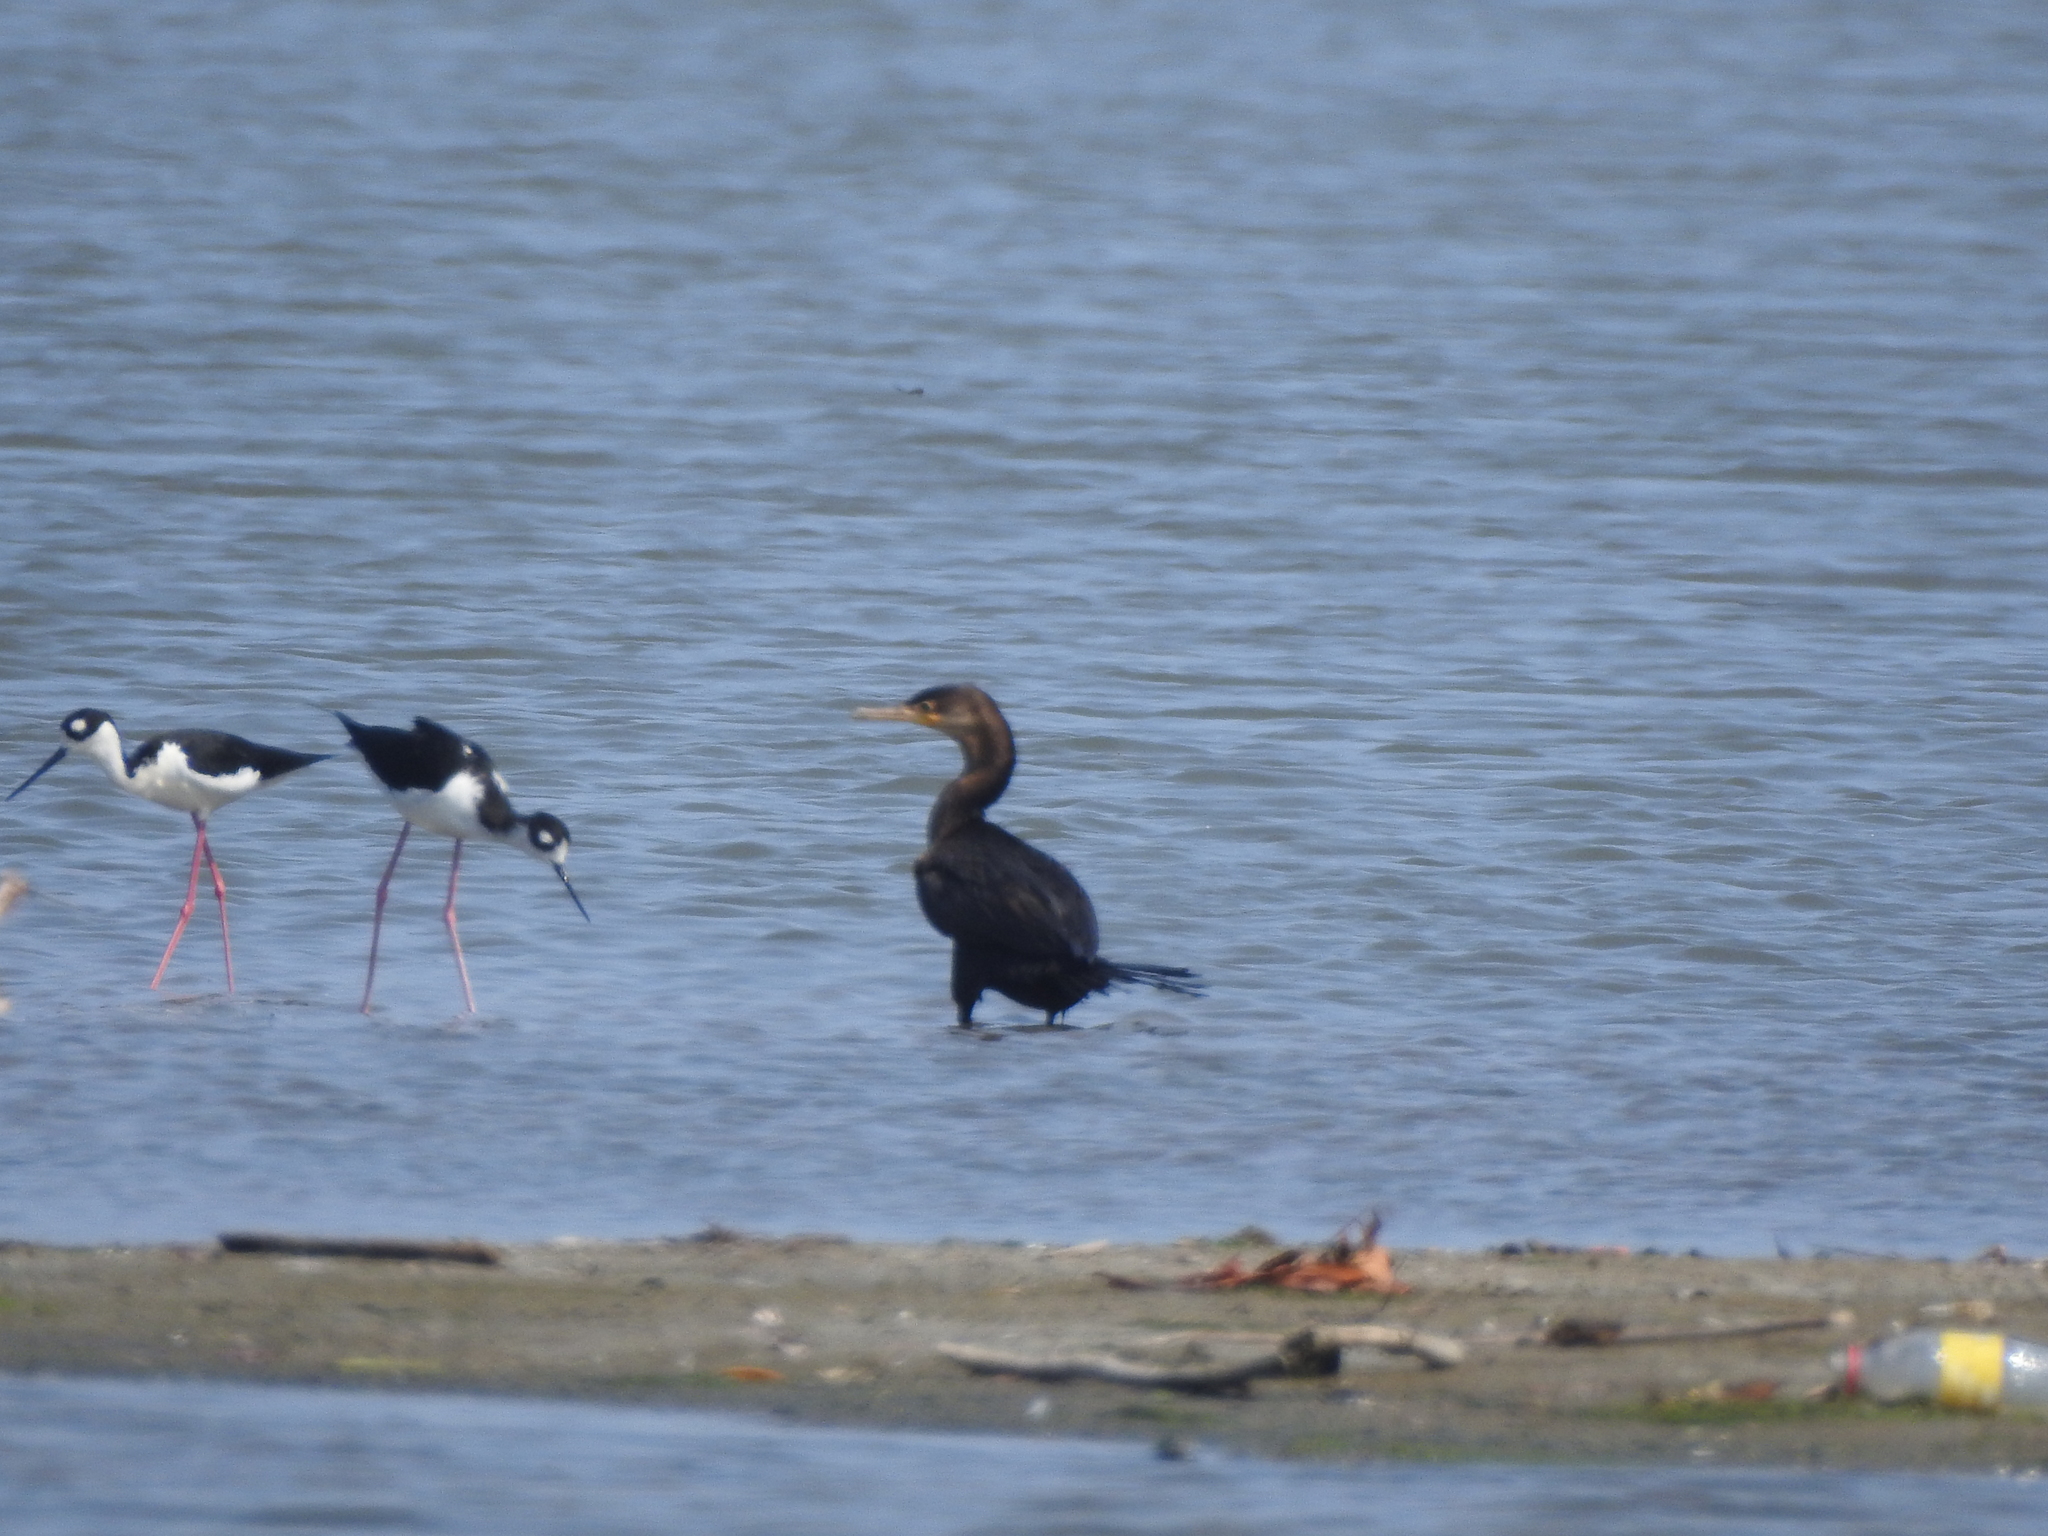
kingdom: Animalia
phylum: Chordata
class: Aves
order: Suliformes
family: Phalacrocoracidae
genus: Phalacrocorax
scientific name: Phalacrocorax brasilianus
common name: Neotropic cormorant
